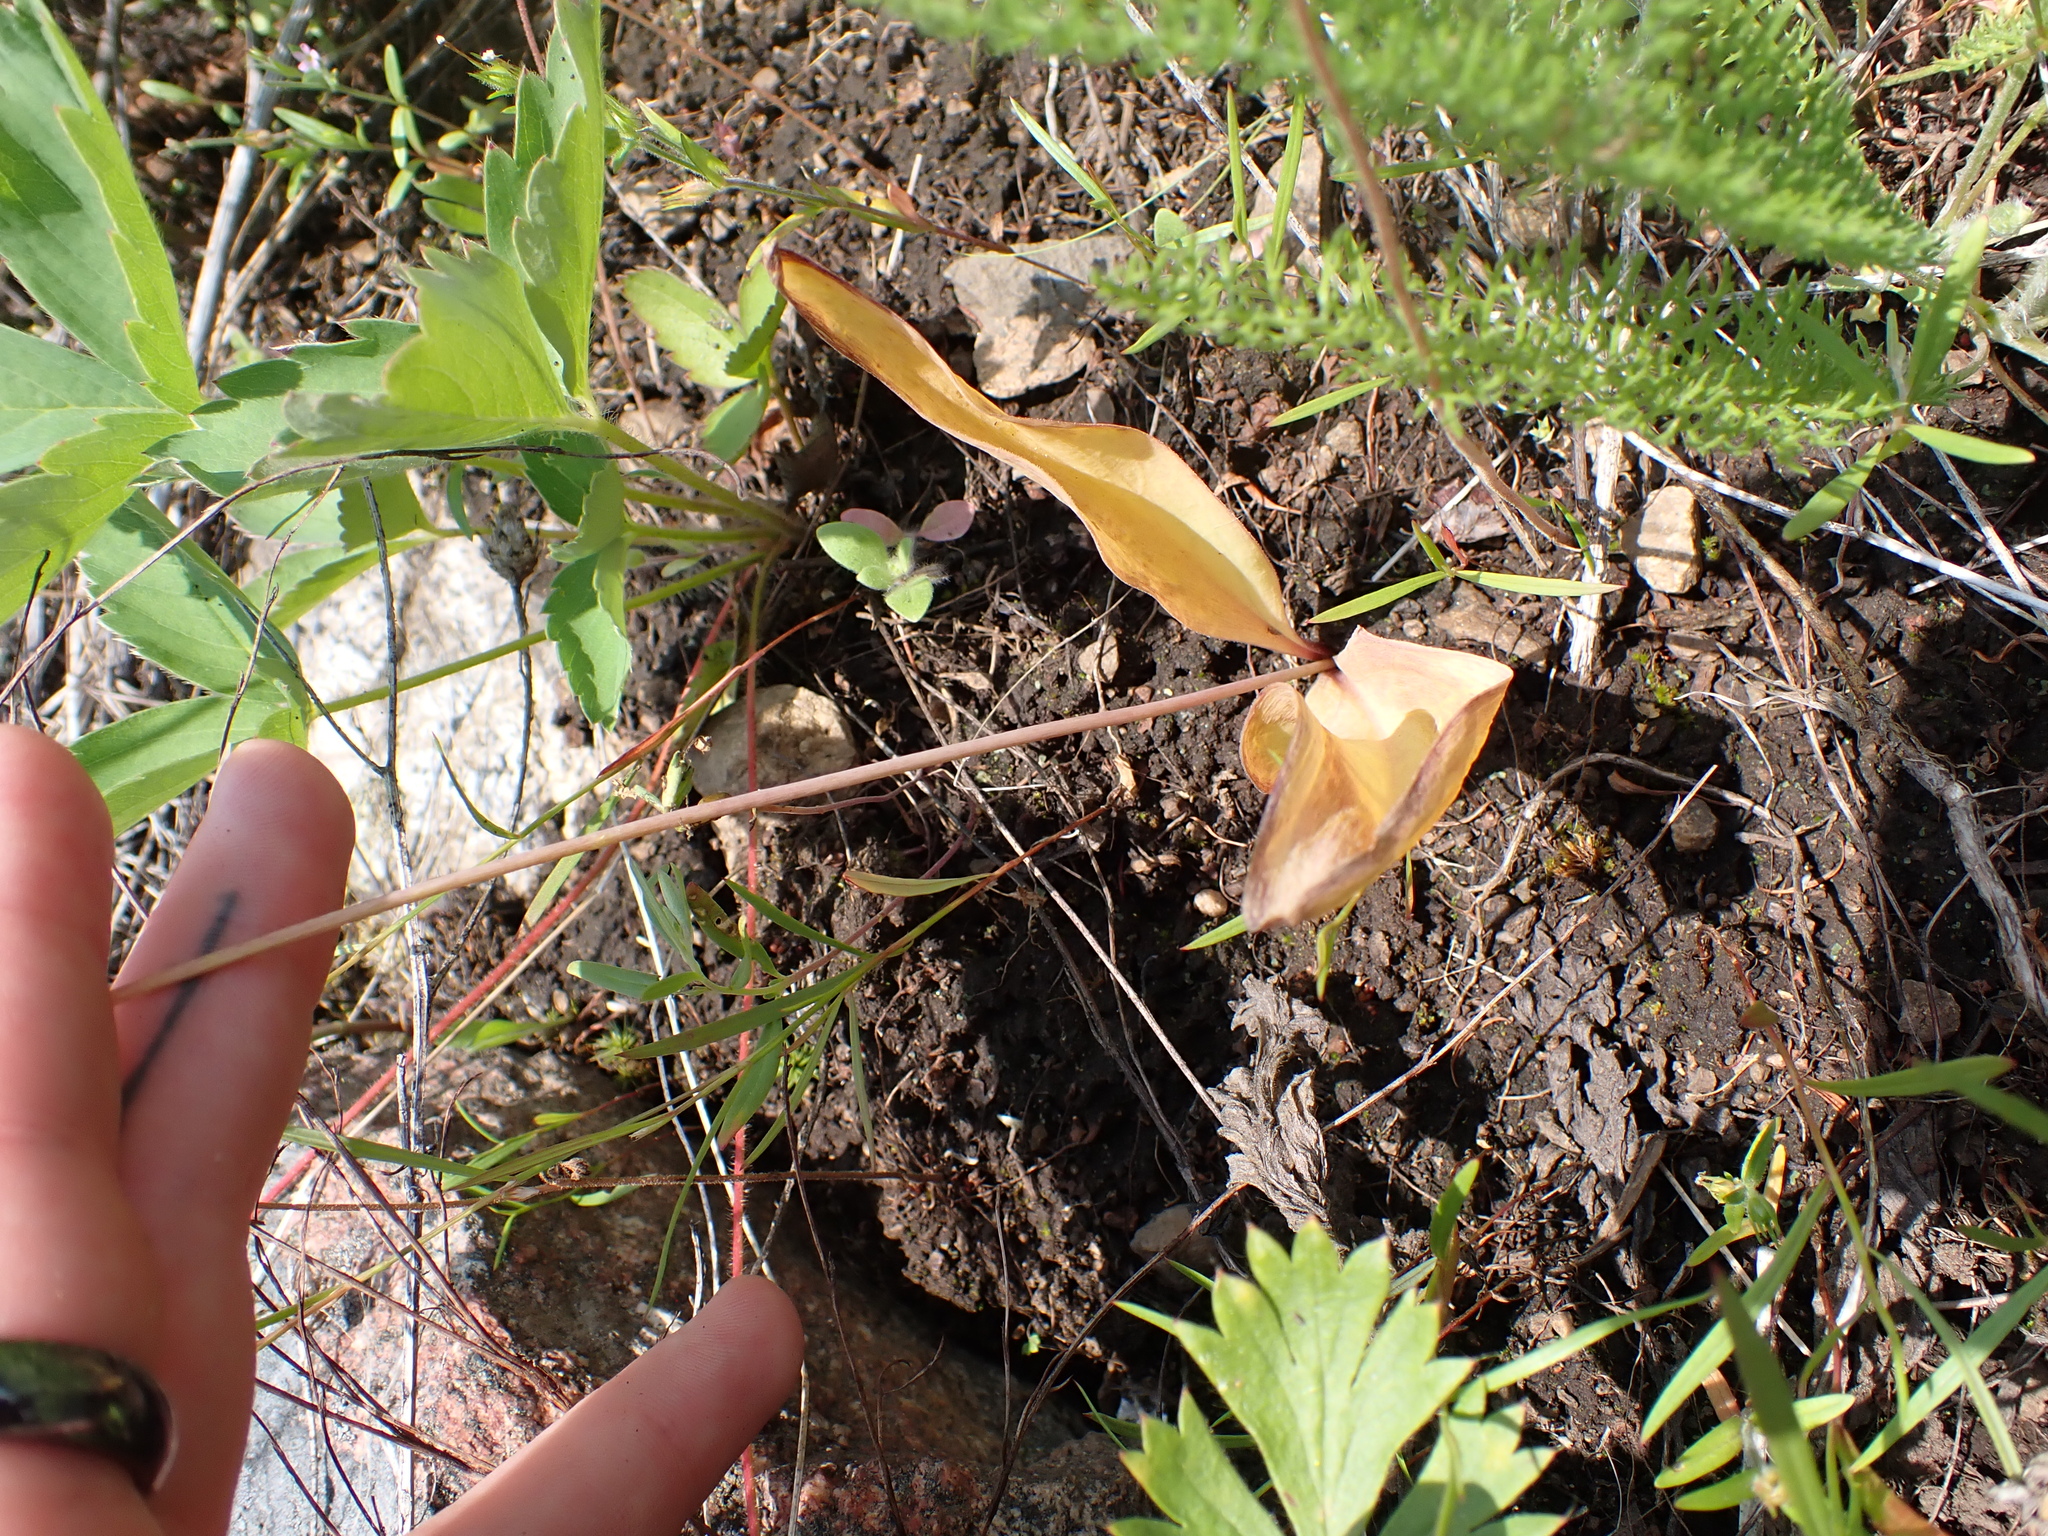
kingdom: Plantae
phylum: Tracheophyta
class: Liliopsida
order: Liliales
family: Liliaceae
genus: Erythronium
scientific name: Erythronium grandiflorum
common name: Avalanche-lily
